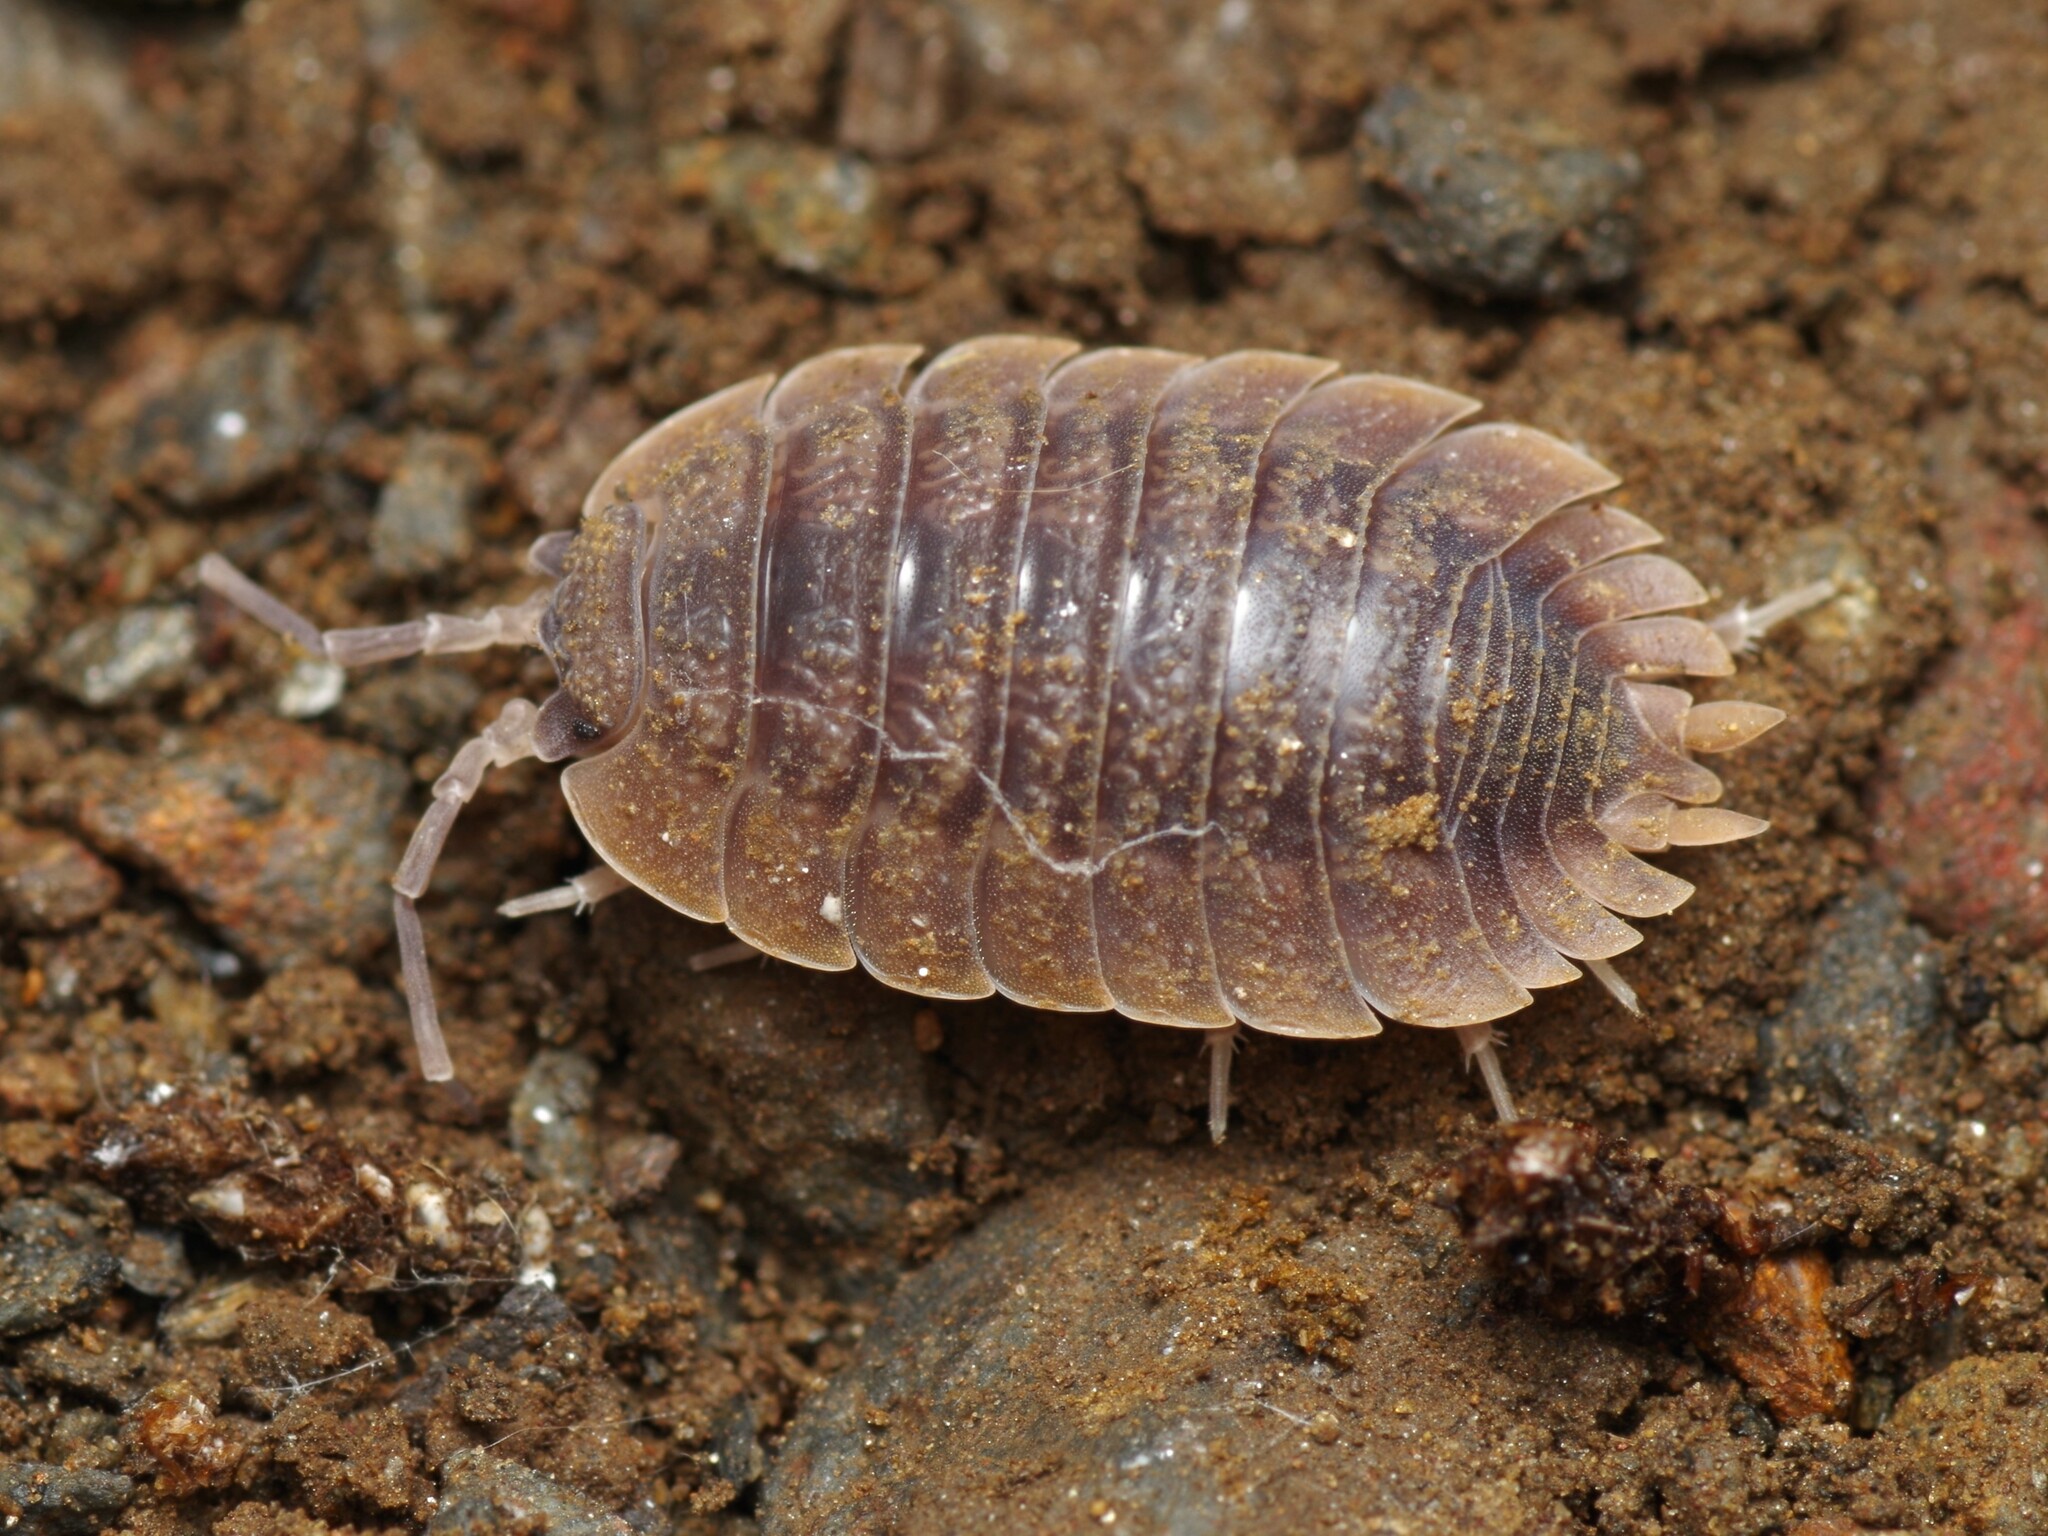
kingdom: Animalia
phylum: Arthropoda
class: Malacostraca
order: Isopoda
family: Porcellionidae
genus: Porcellio
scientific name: Porcellio dilatatus
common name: Isopod
